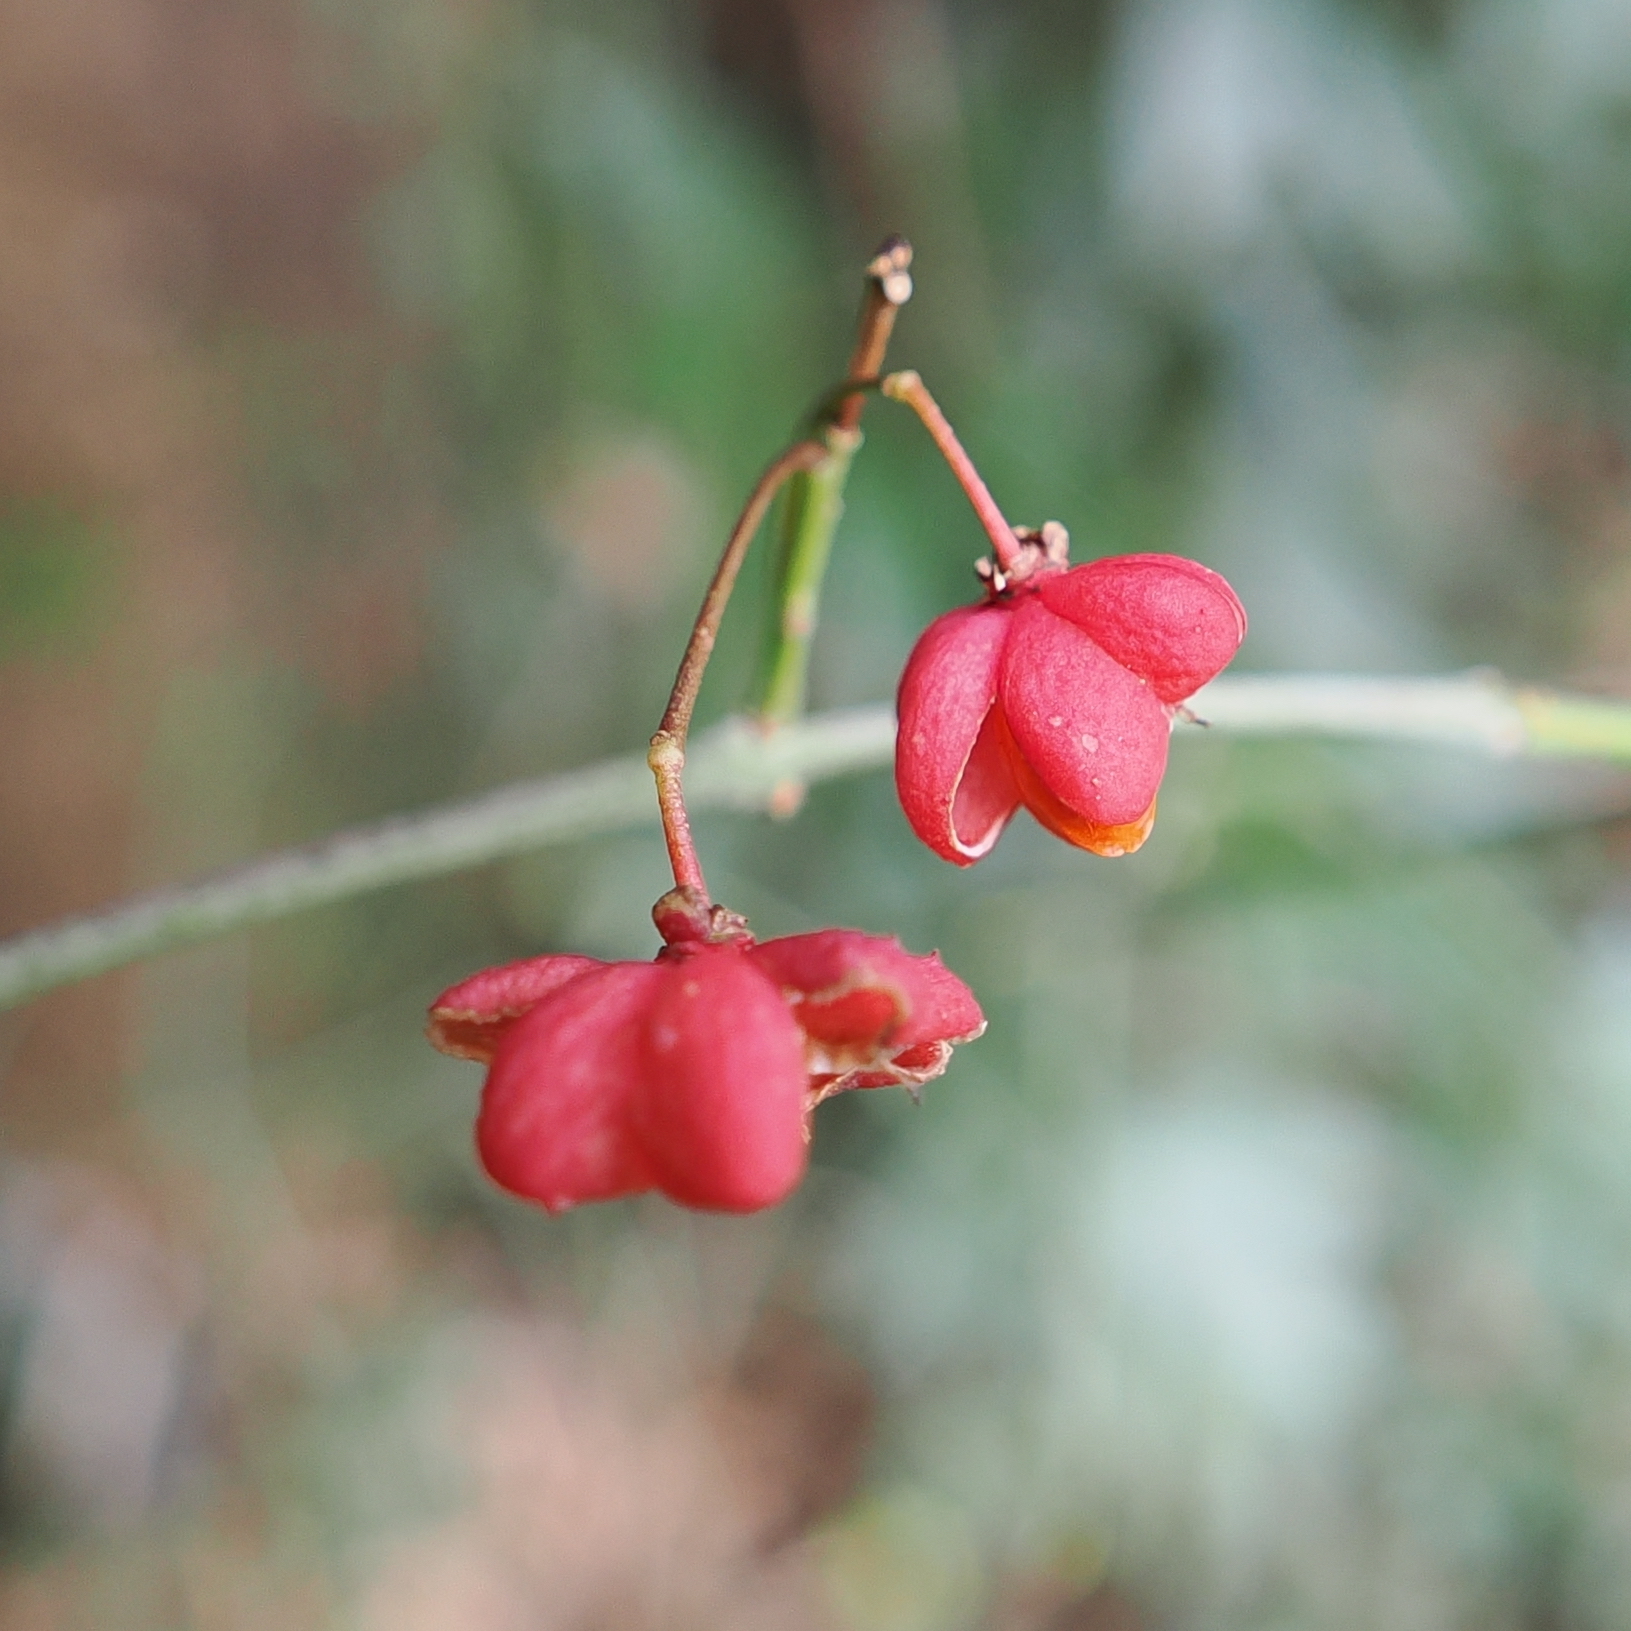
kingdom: Plantae
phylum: Tracheophyta
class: Magnoliopsida
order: Celastrales
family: Celastraceae
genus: Euonymus
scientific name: Euonymus europaeus
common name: Spindle
